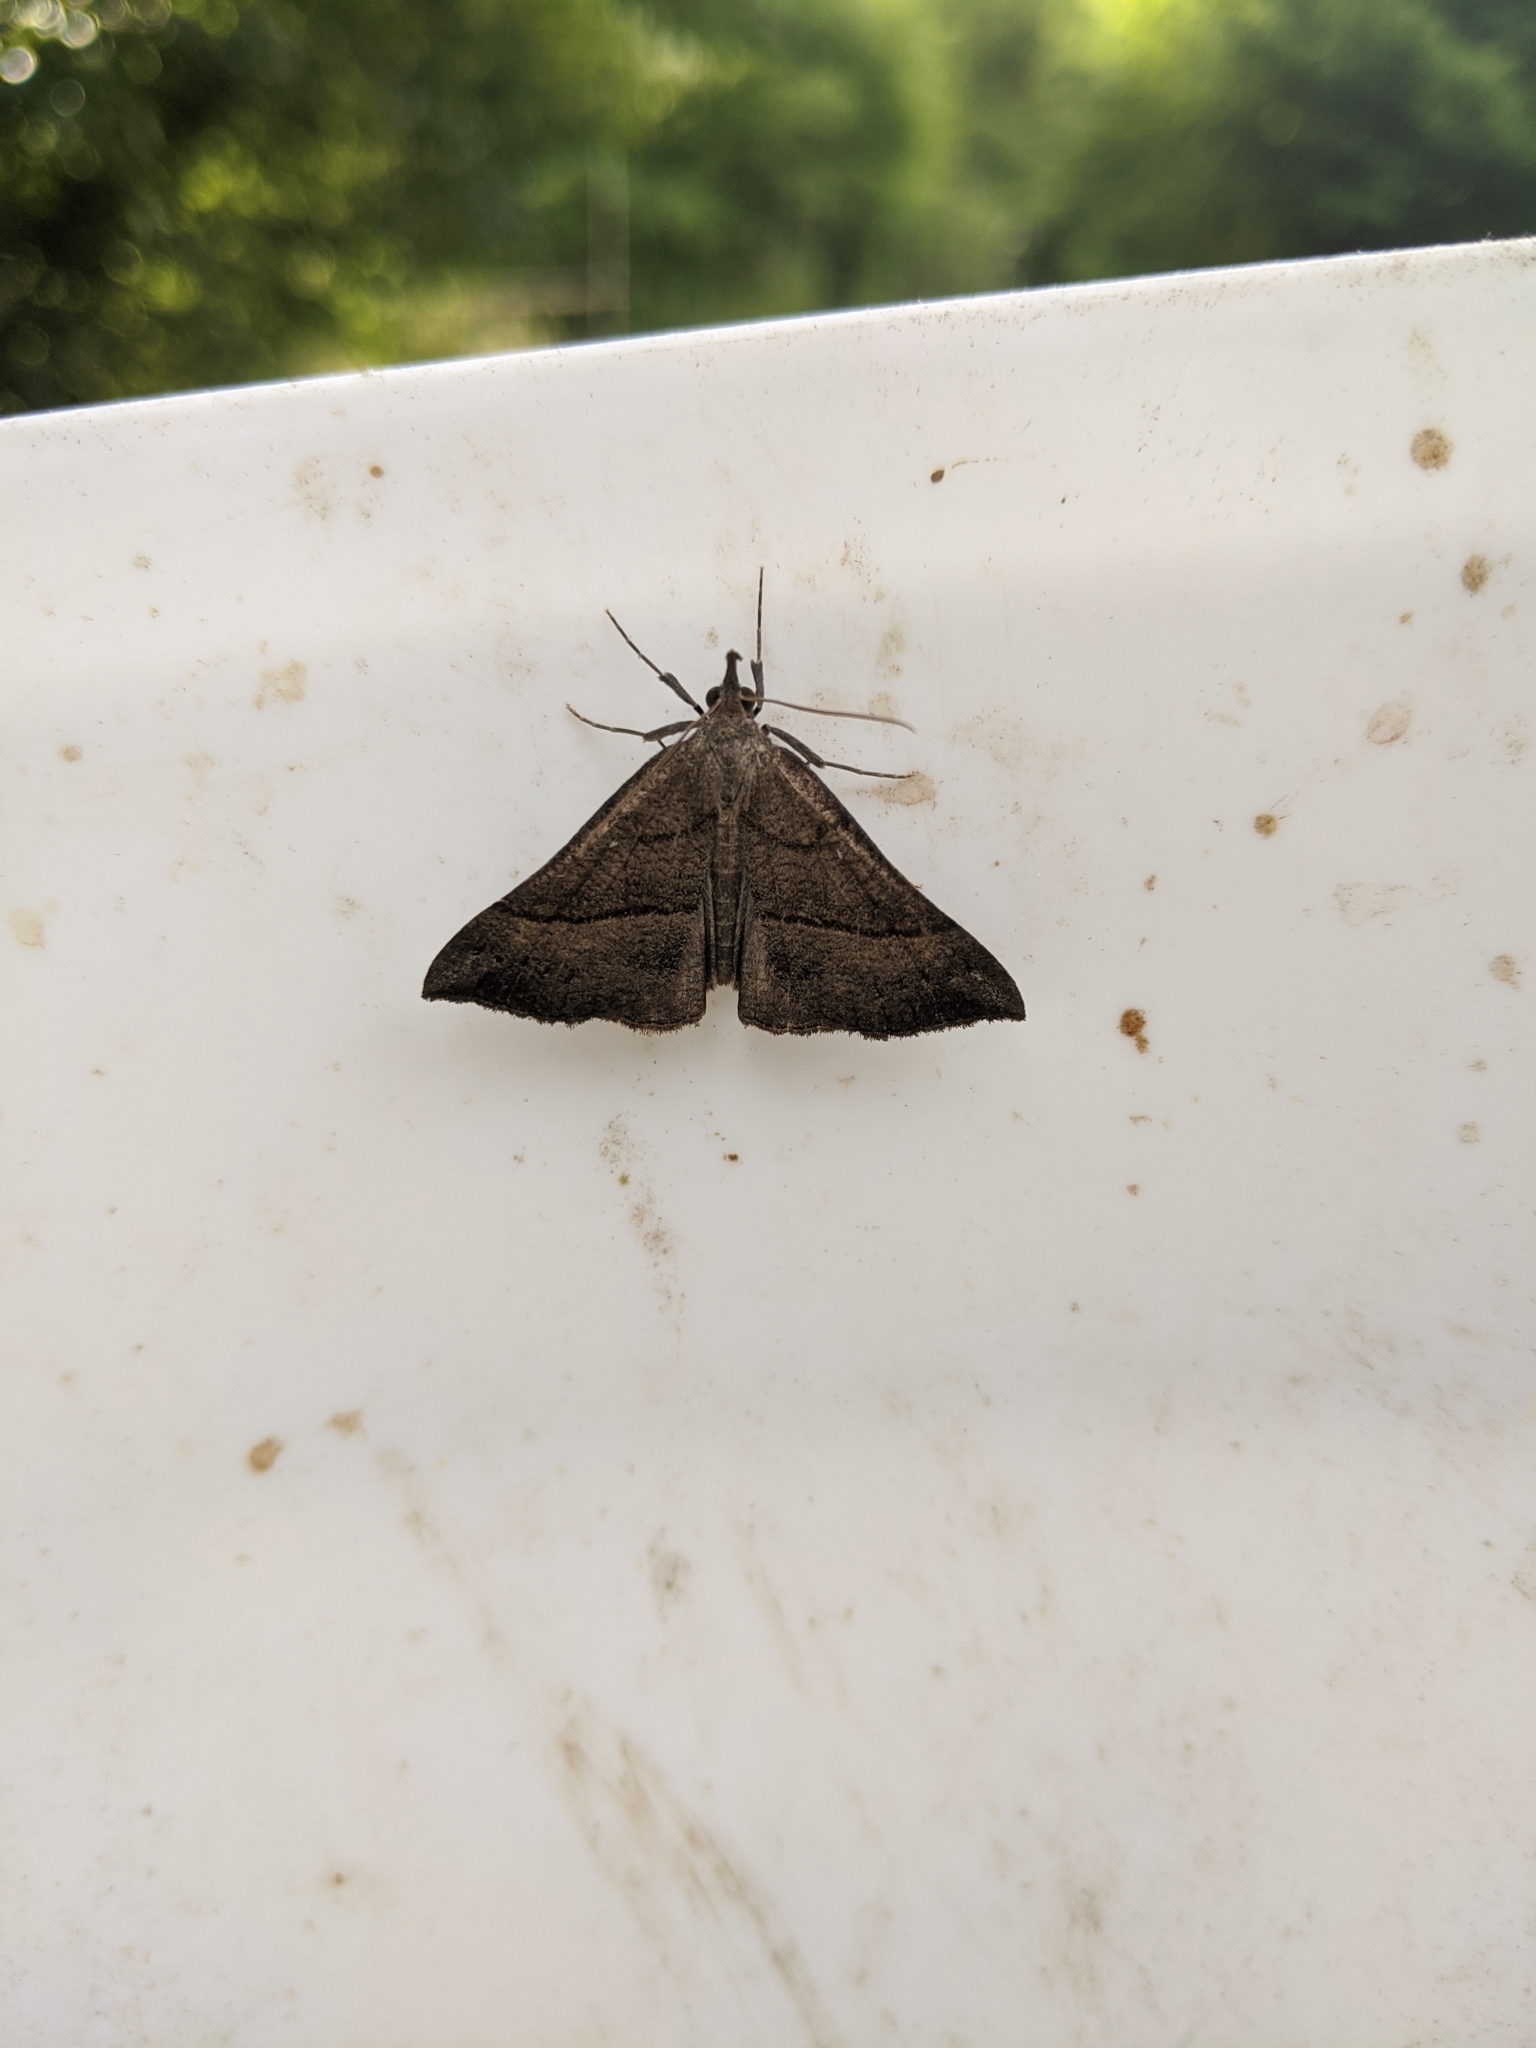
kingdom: Animalia
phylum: Arthropoda
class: Insecta
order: Lepidoptera
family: Erebidae
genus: Hypena
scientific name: Hypena proboscidalis
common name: Snout
